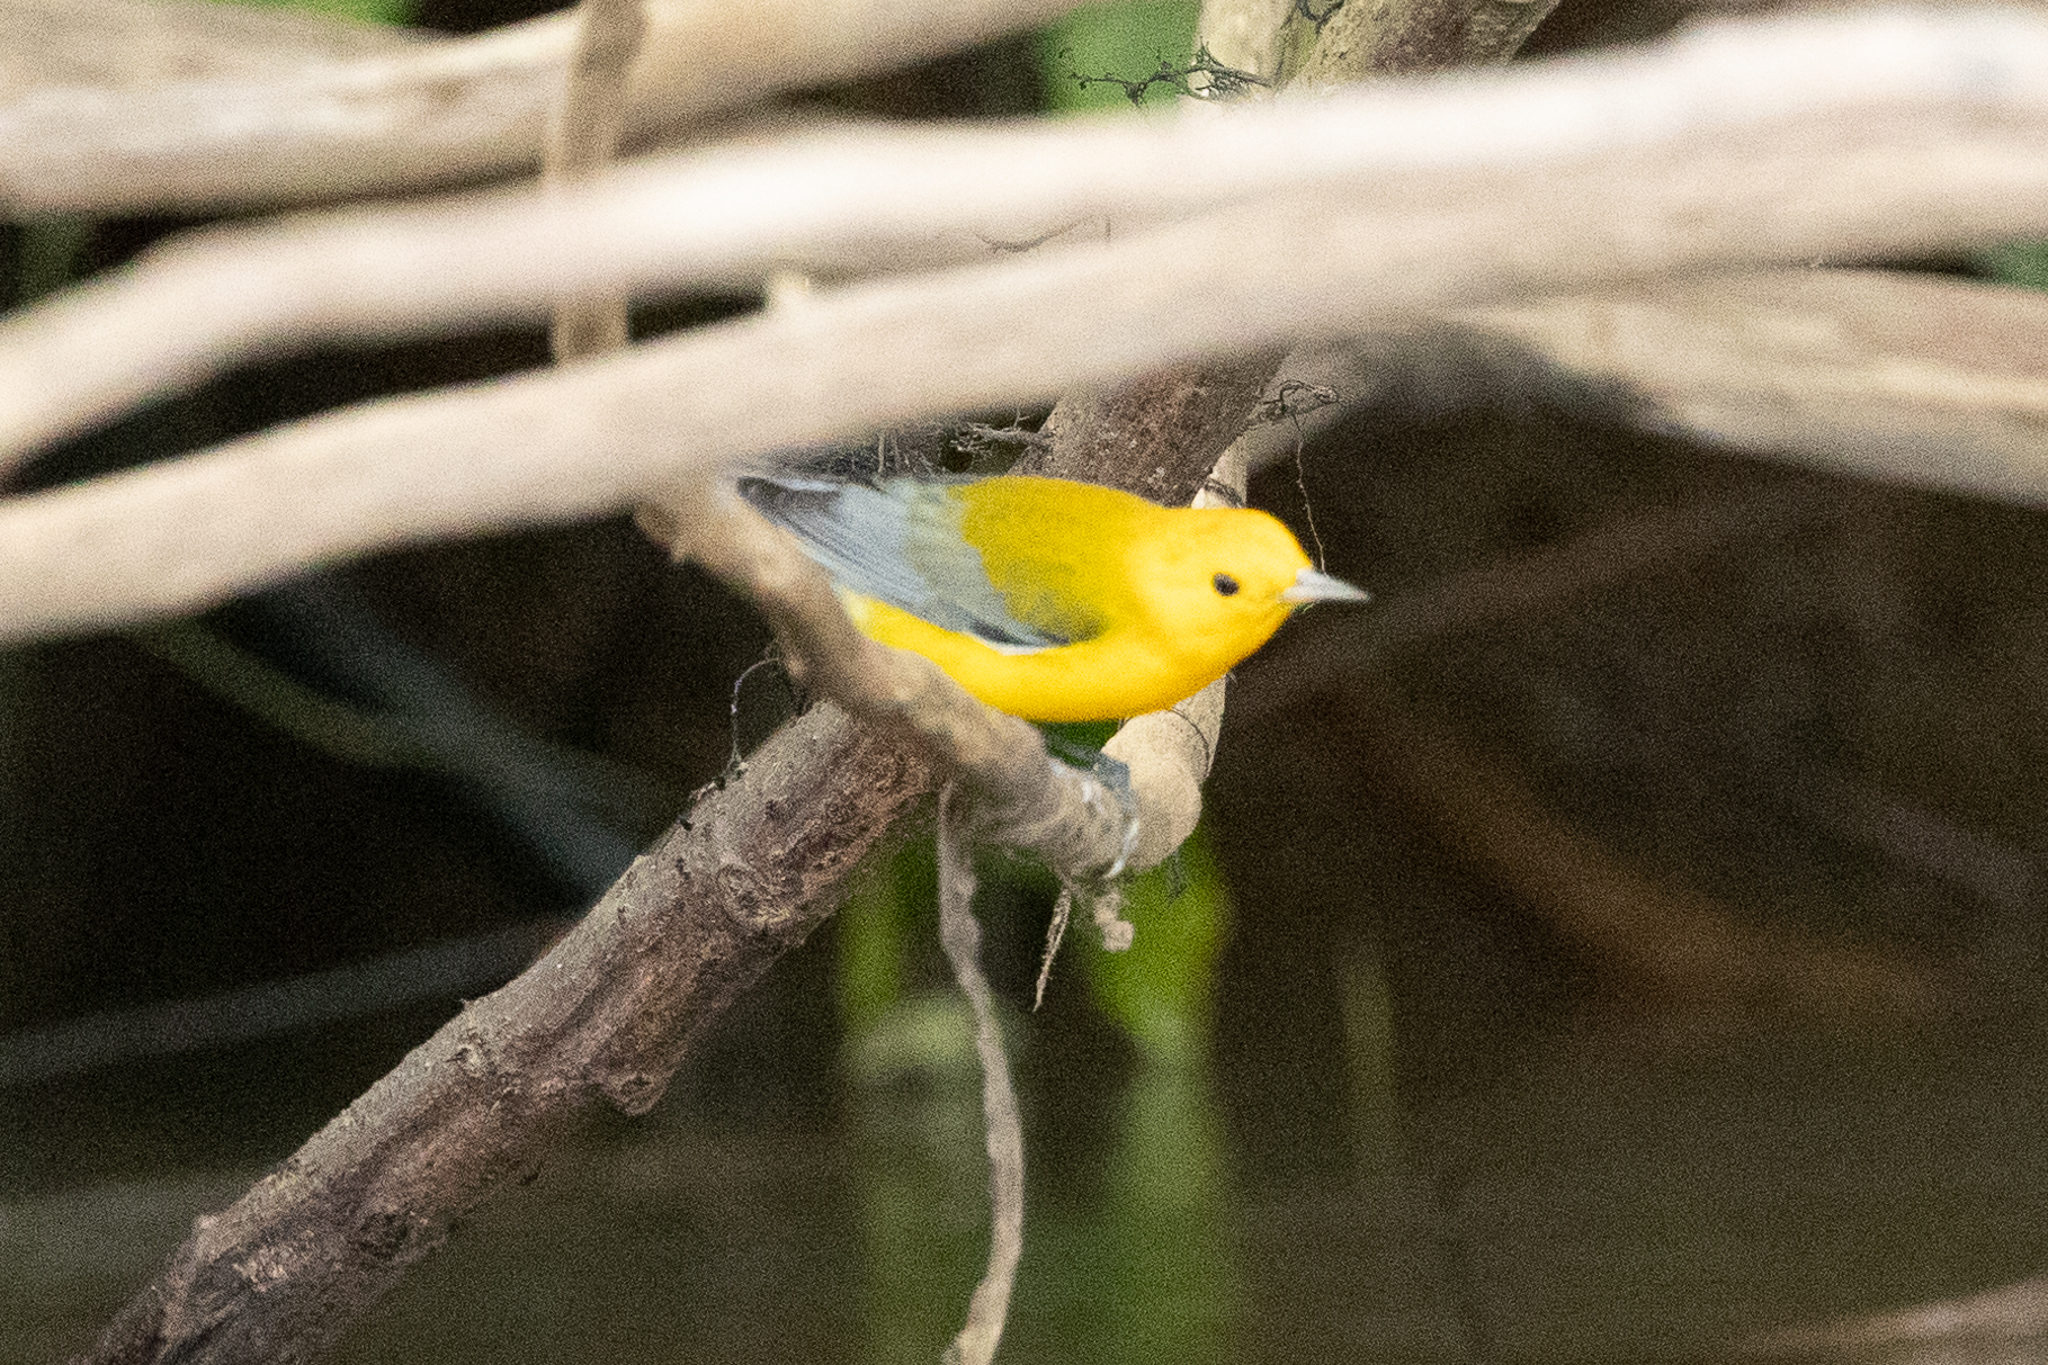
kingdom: Animalia
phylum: Chordata
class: Aves
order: Passeriformes
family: Parulidae
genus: Protonotaria
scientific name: Protonotaria citrea
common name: Prothonotary warbler
